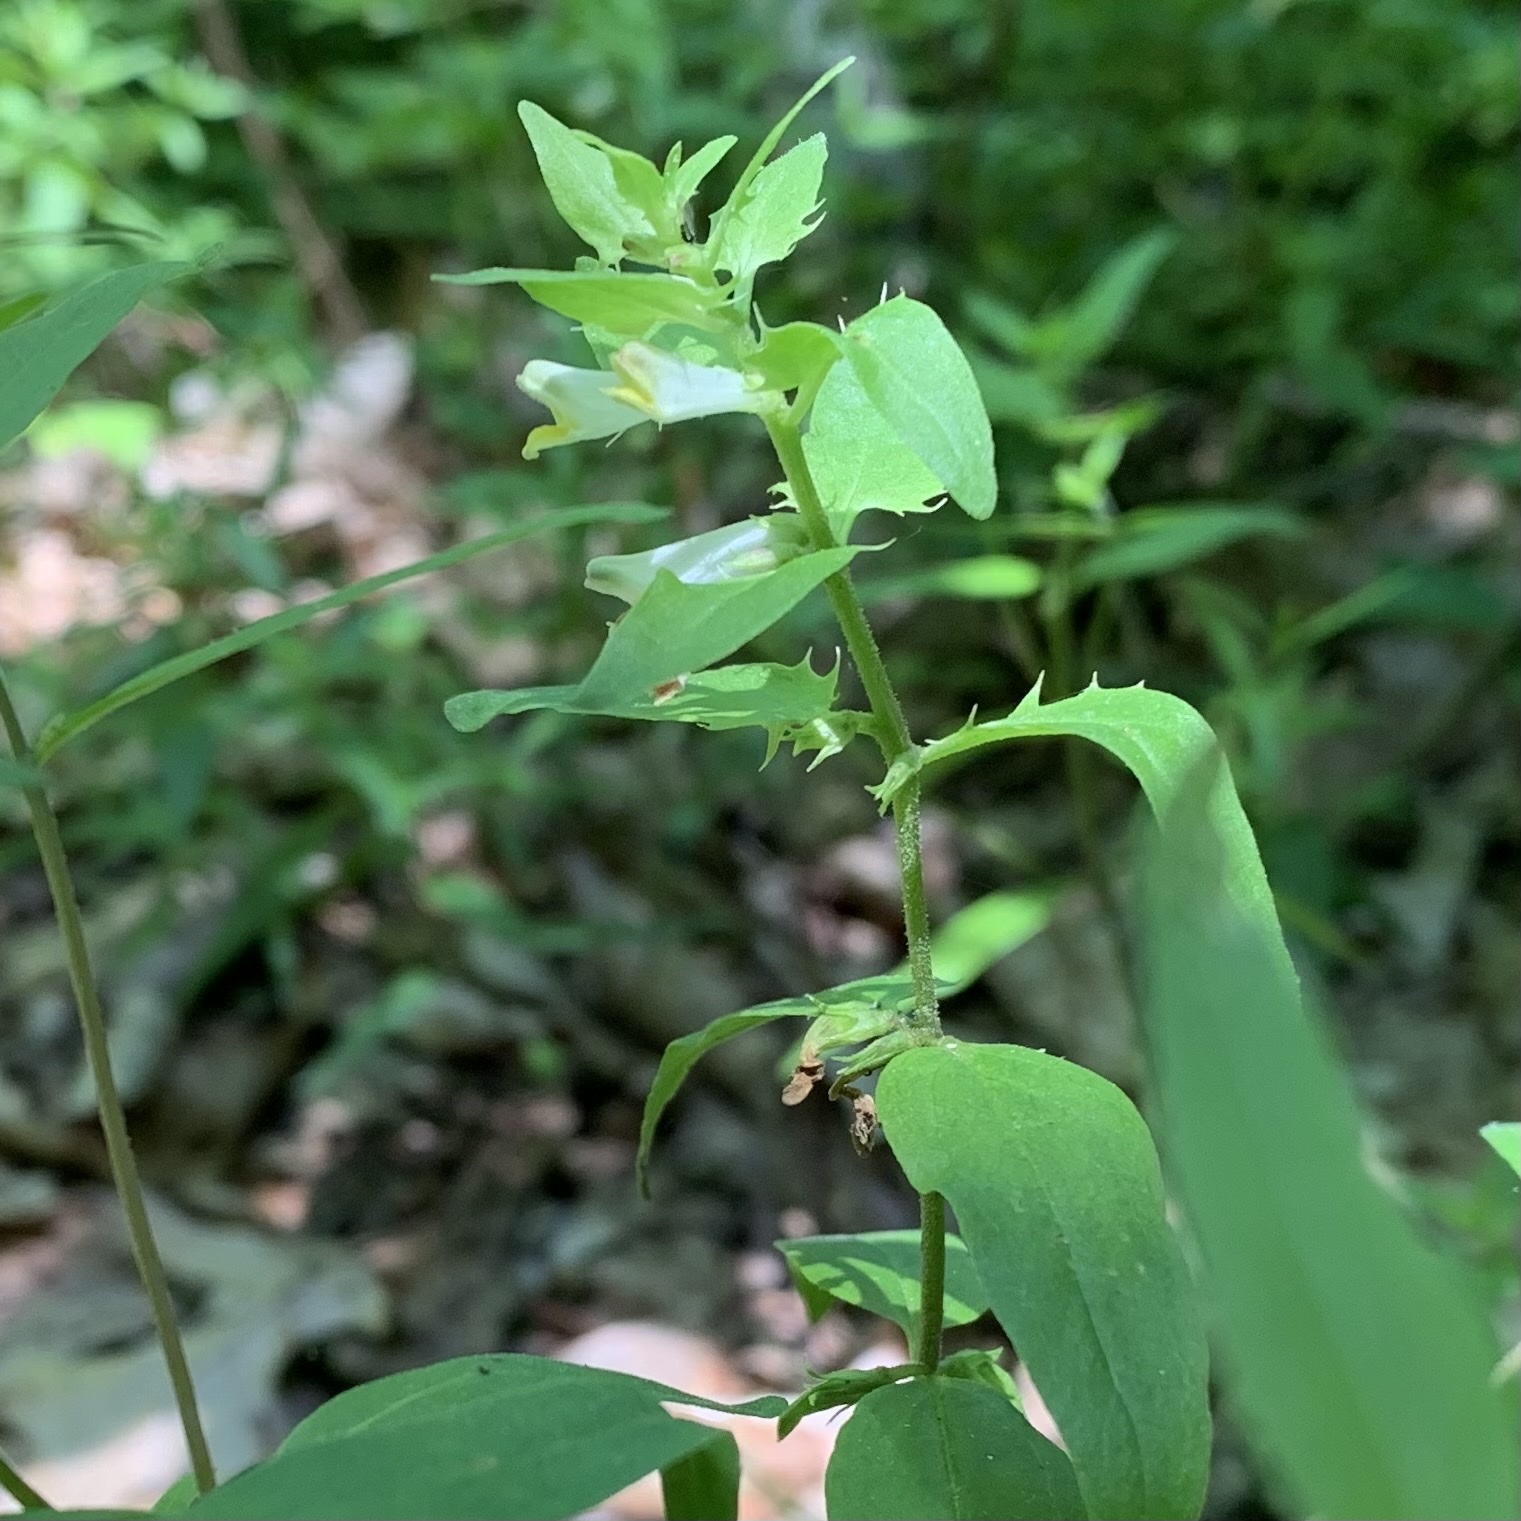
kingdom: Plantae
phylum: Tracheophyta
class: Magnoliopsida
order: Lamiales
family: Orobanchaceae
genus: Melampyrum
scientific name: Melampyrum lineare
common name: American cow-wheat
